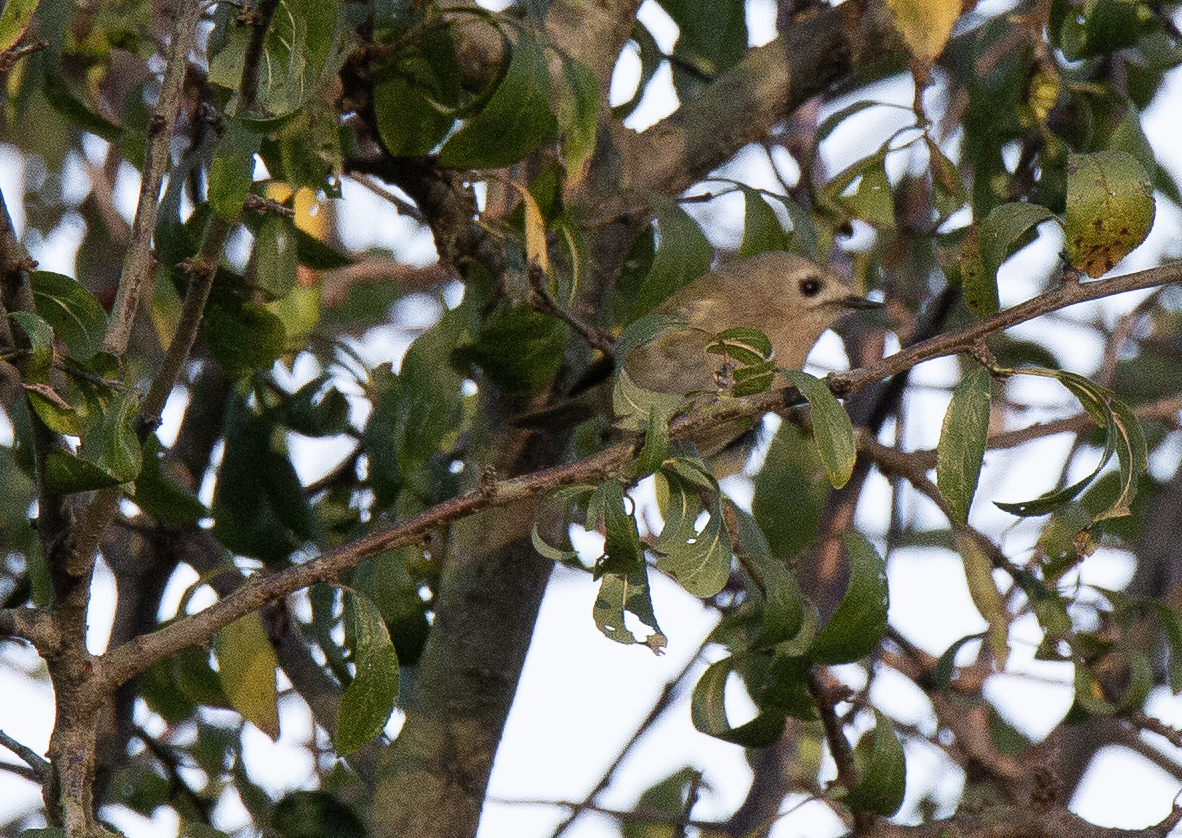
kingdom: Animalia
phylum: Chordata
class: Aves
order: Passeriformes
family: Regulidae
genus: Regulus
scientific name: Regulus regulus
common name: Goldcrest
